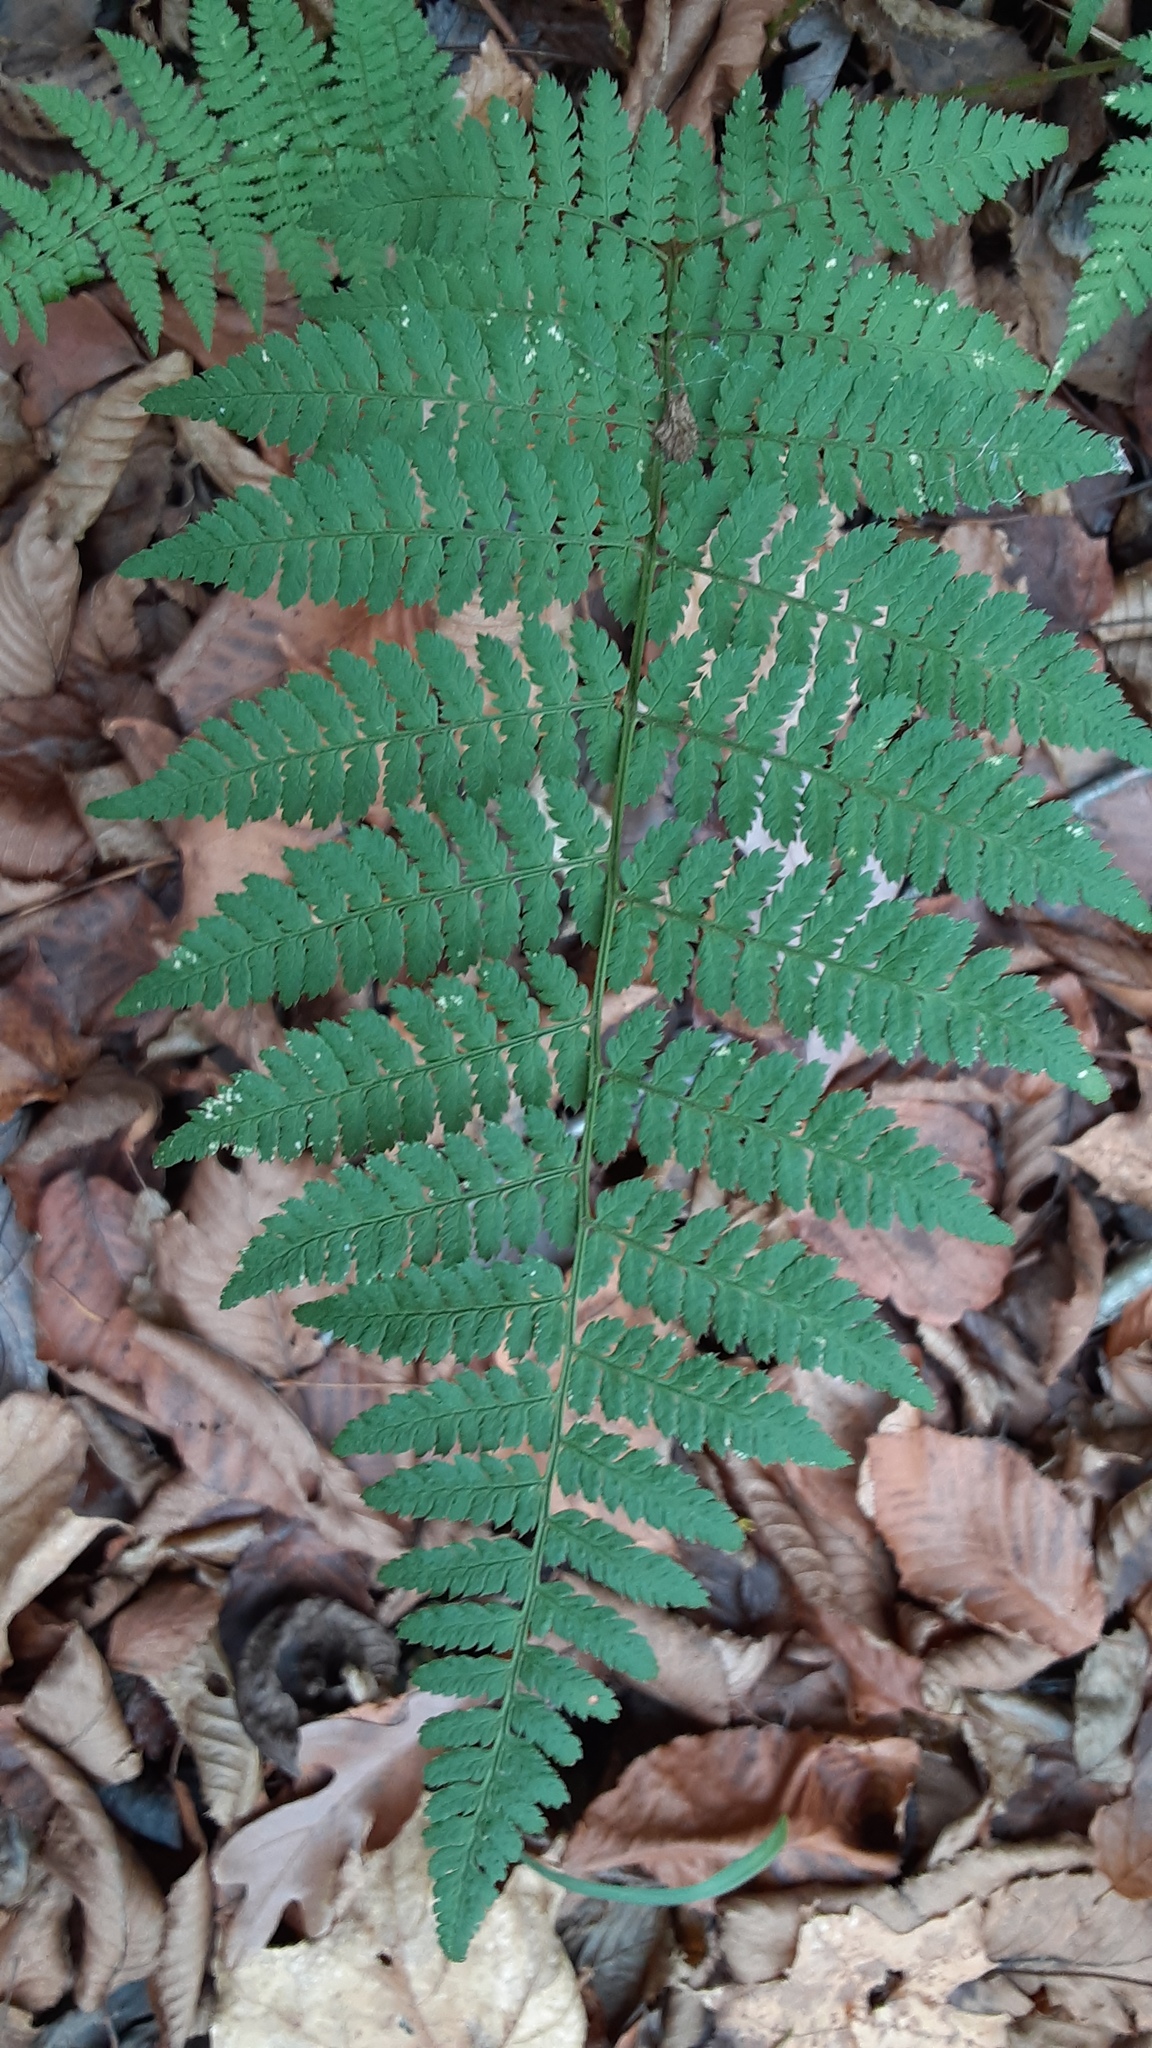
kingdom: Plantae
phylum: Tracheophyta
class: Polypodiopsida
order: Polypodiales
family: Dryopteridaceae
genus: Dryopteris
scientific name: Dryopteris intermedia
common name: Evergreen wood fern
